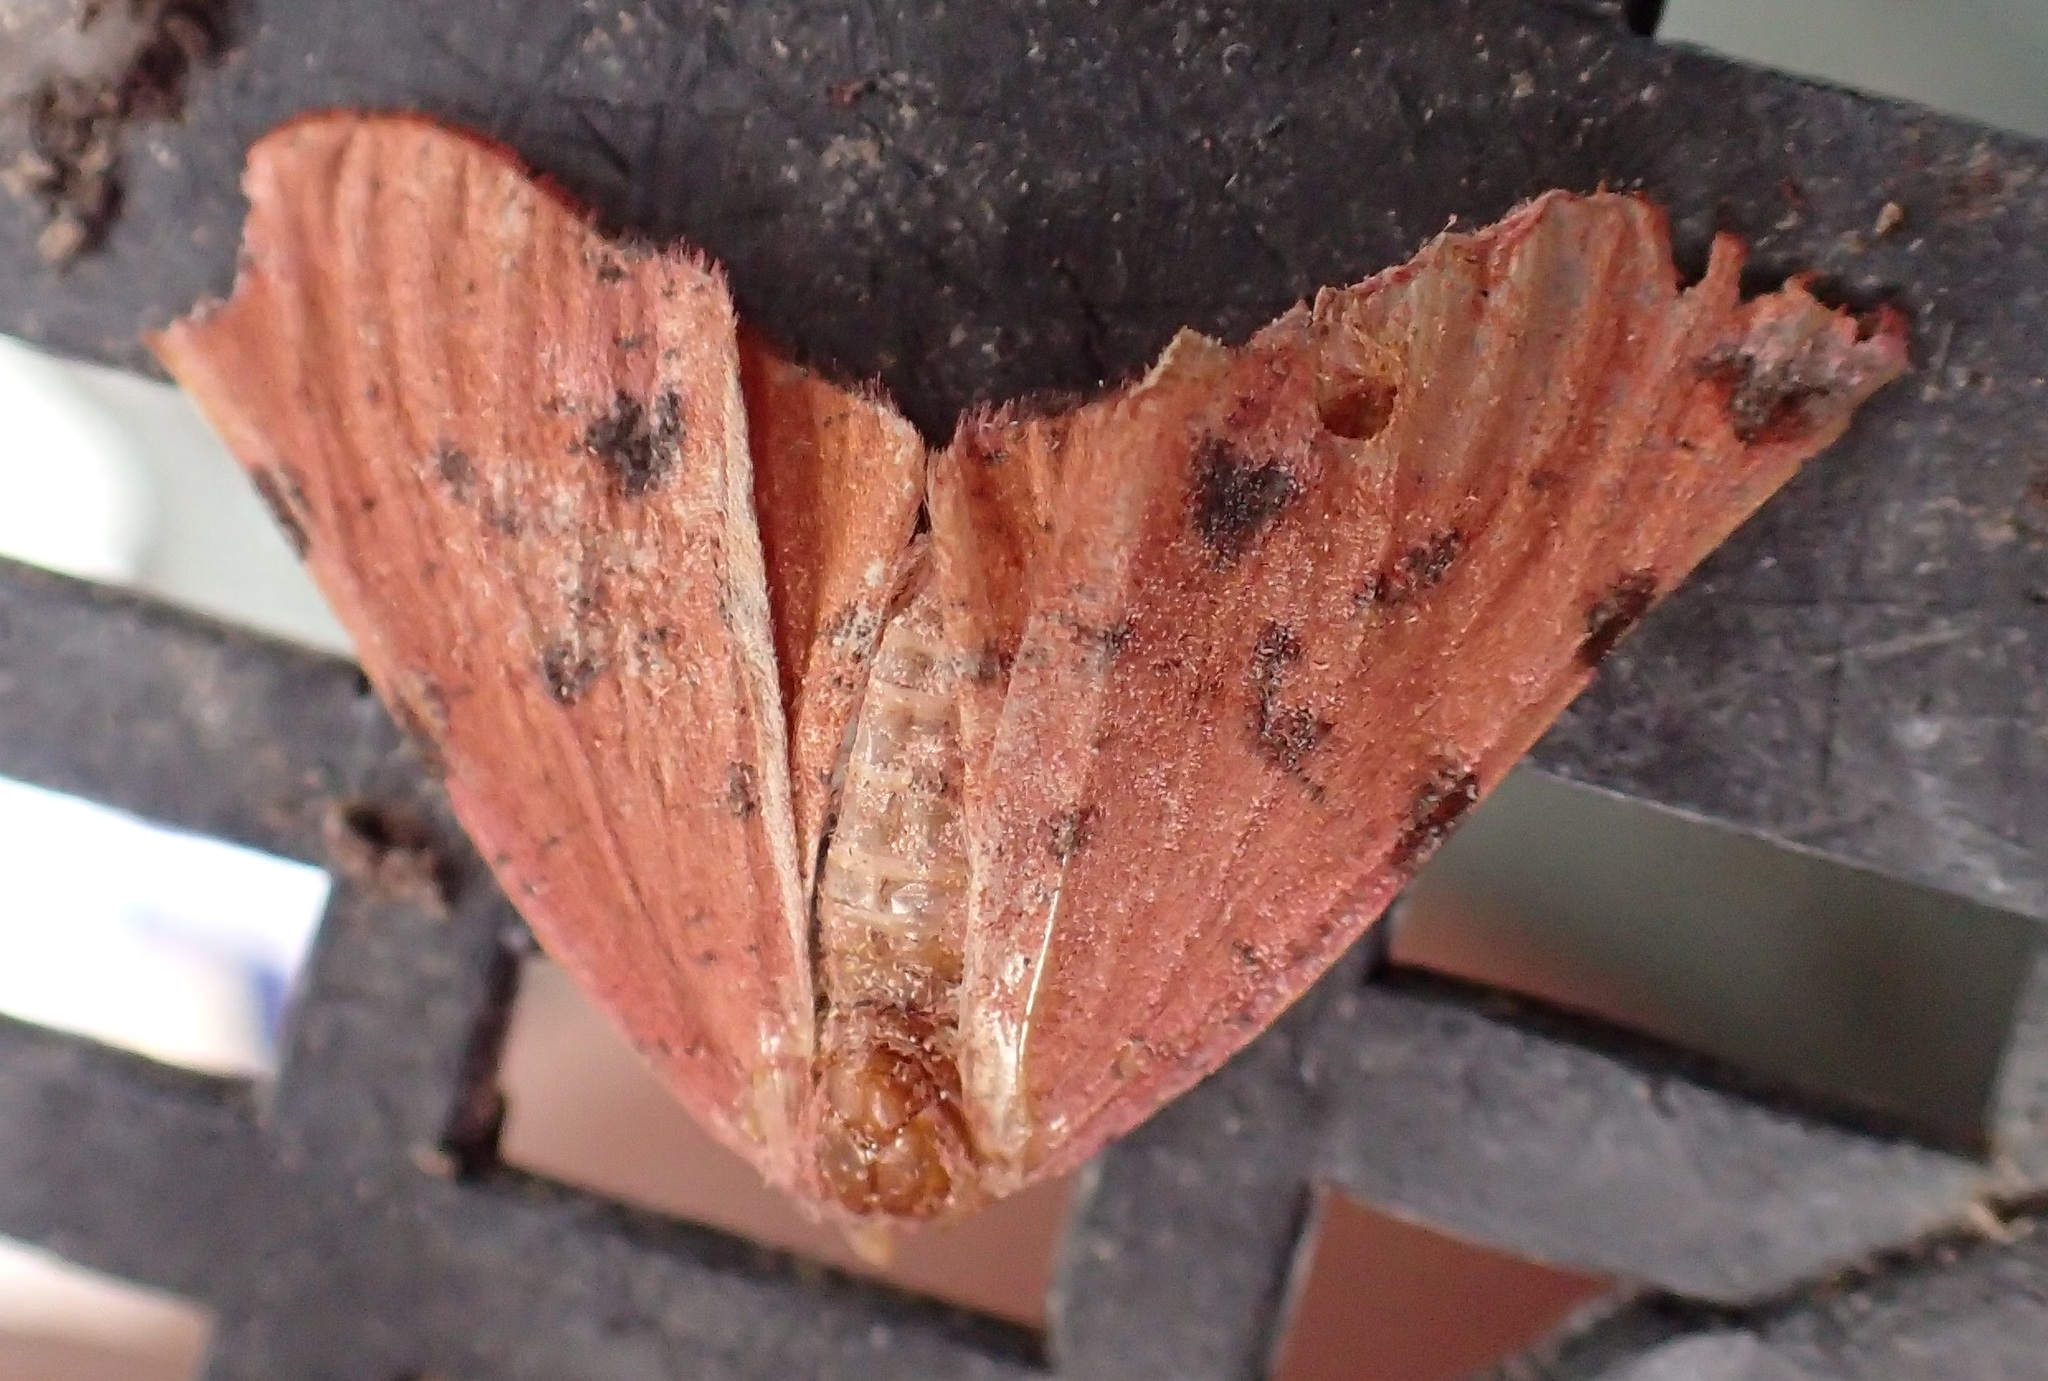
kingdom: Animalia
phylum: Arthropoda
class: Insecta
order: Lepidoptera
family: Geometridae
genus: Onycodes
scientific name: Onycodes traumataria
